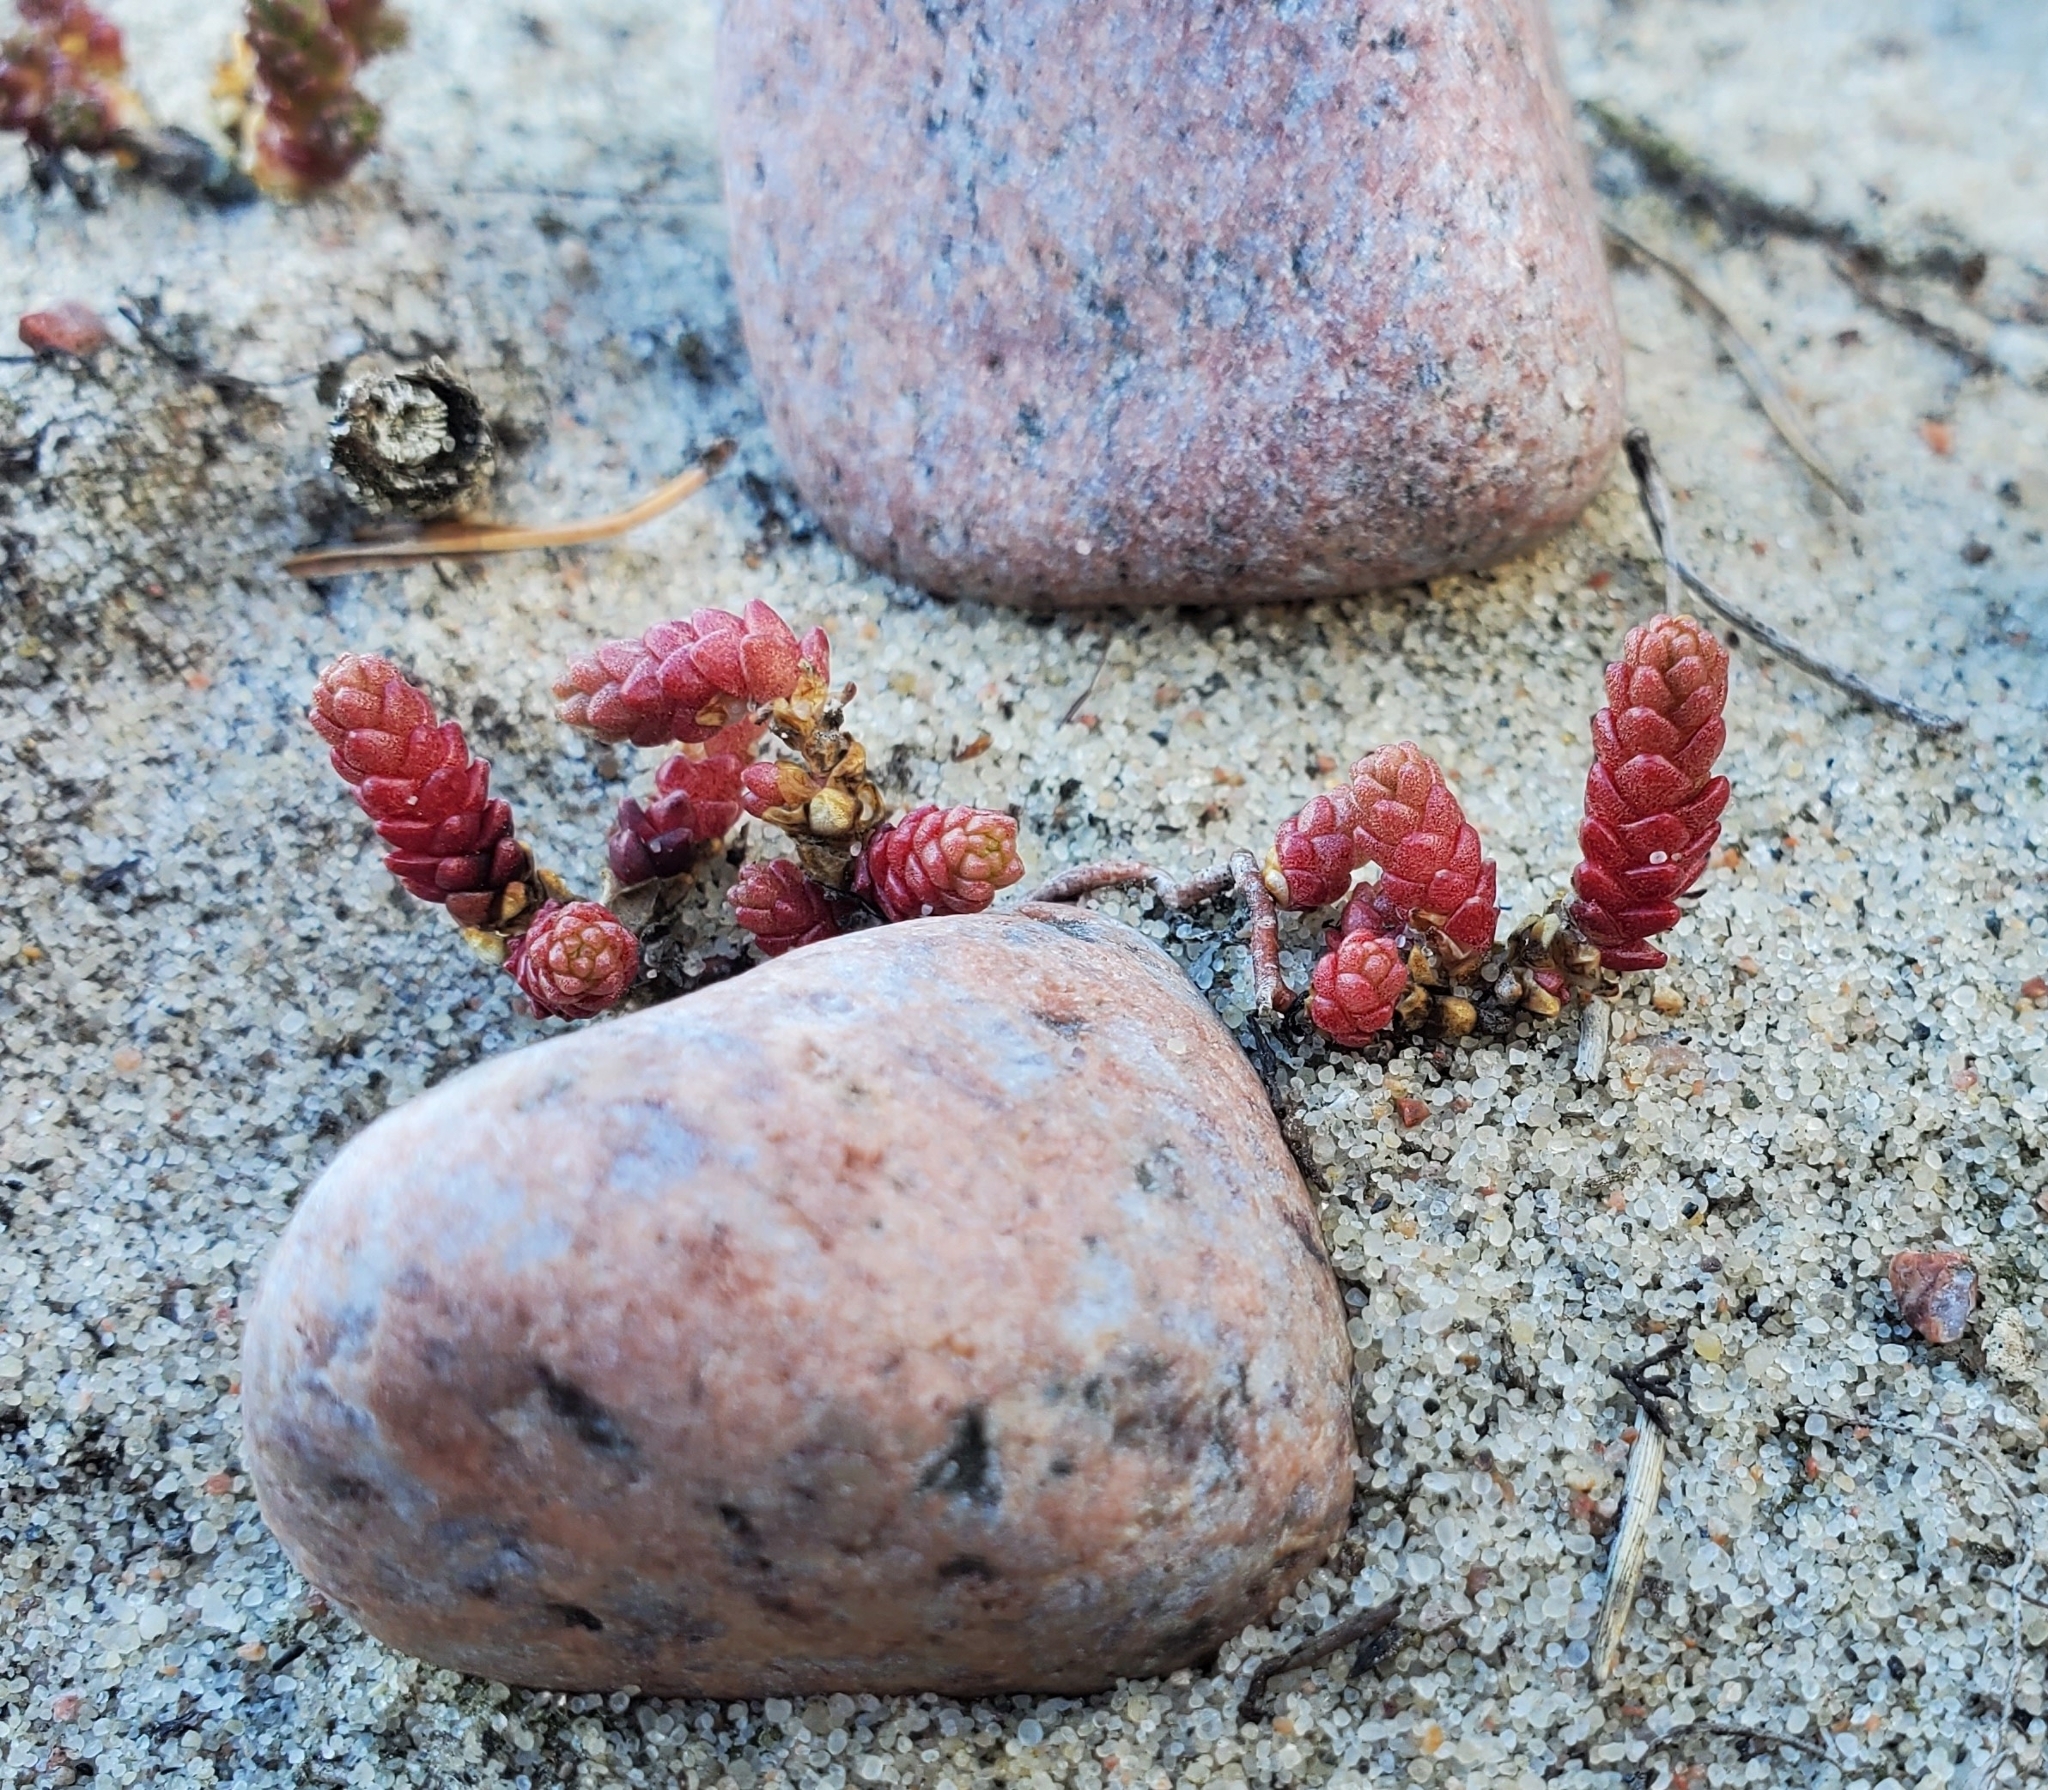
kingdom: Plantae
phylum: Tracheophyta
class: Magnoliopsida
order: Saxifragales
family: Crassulaceae
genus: Sedum
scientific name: Sedum acre
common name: Biting stonecrop
